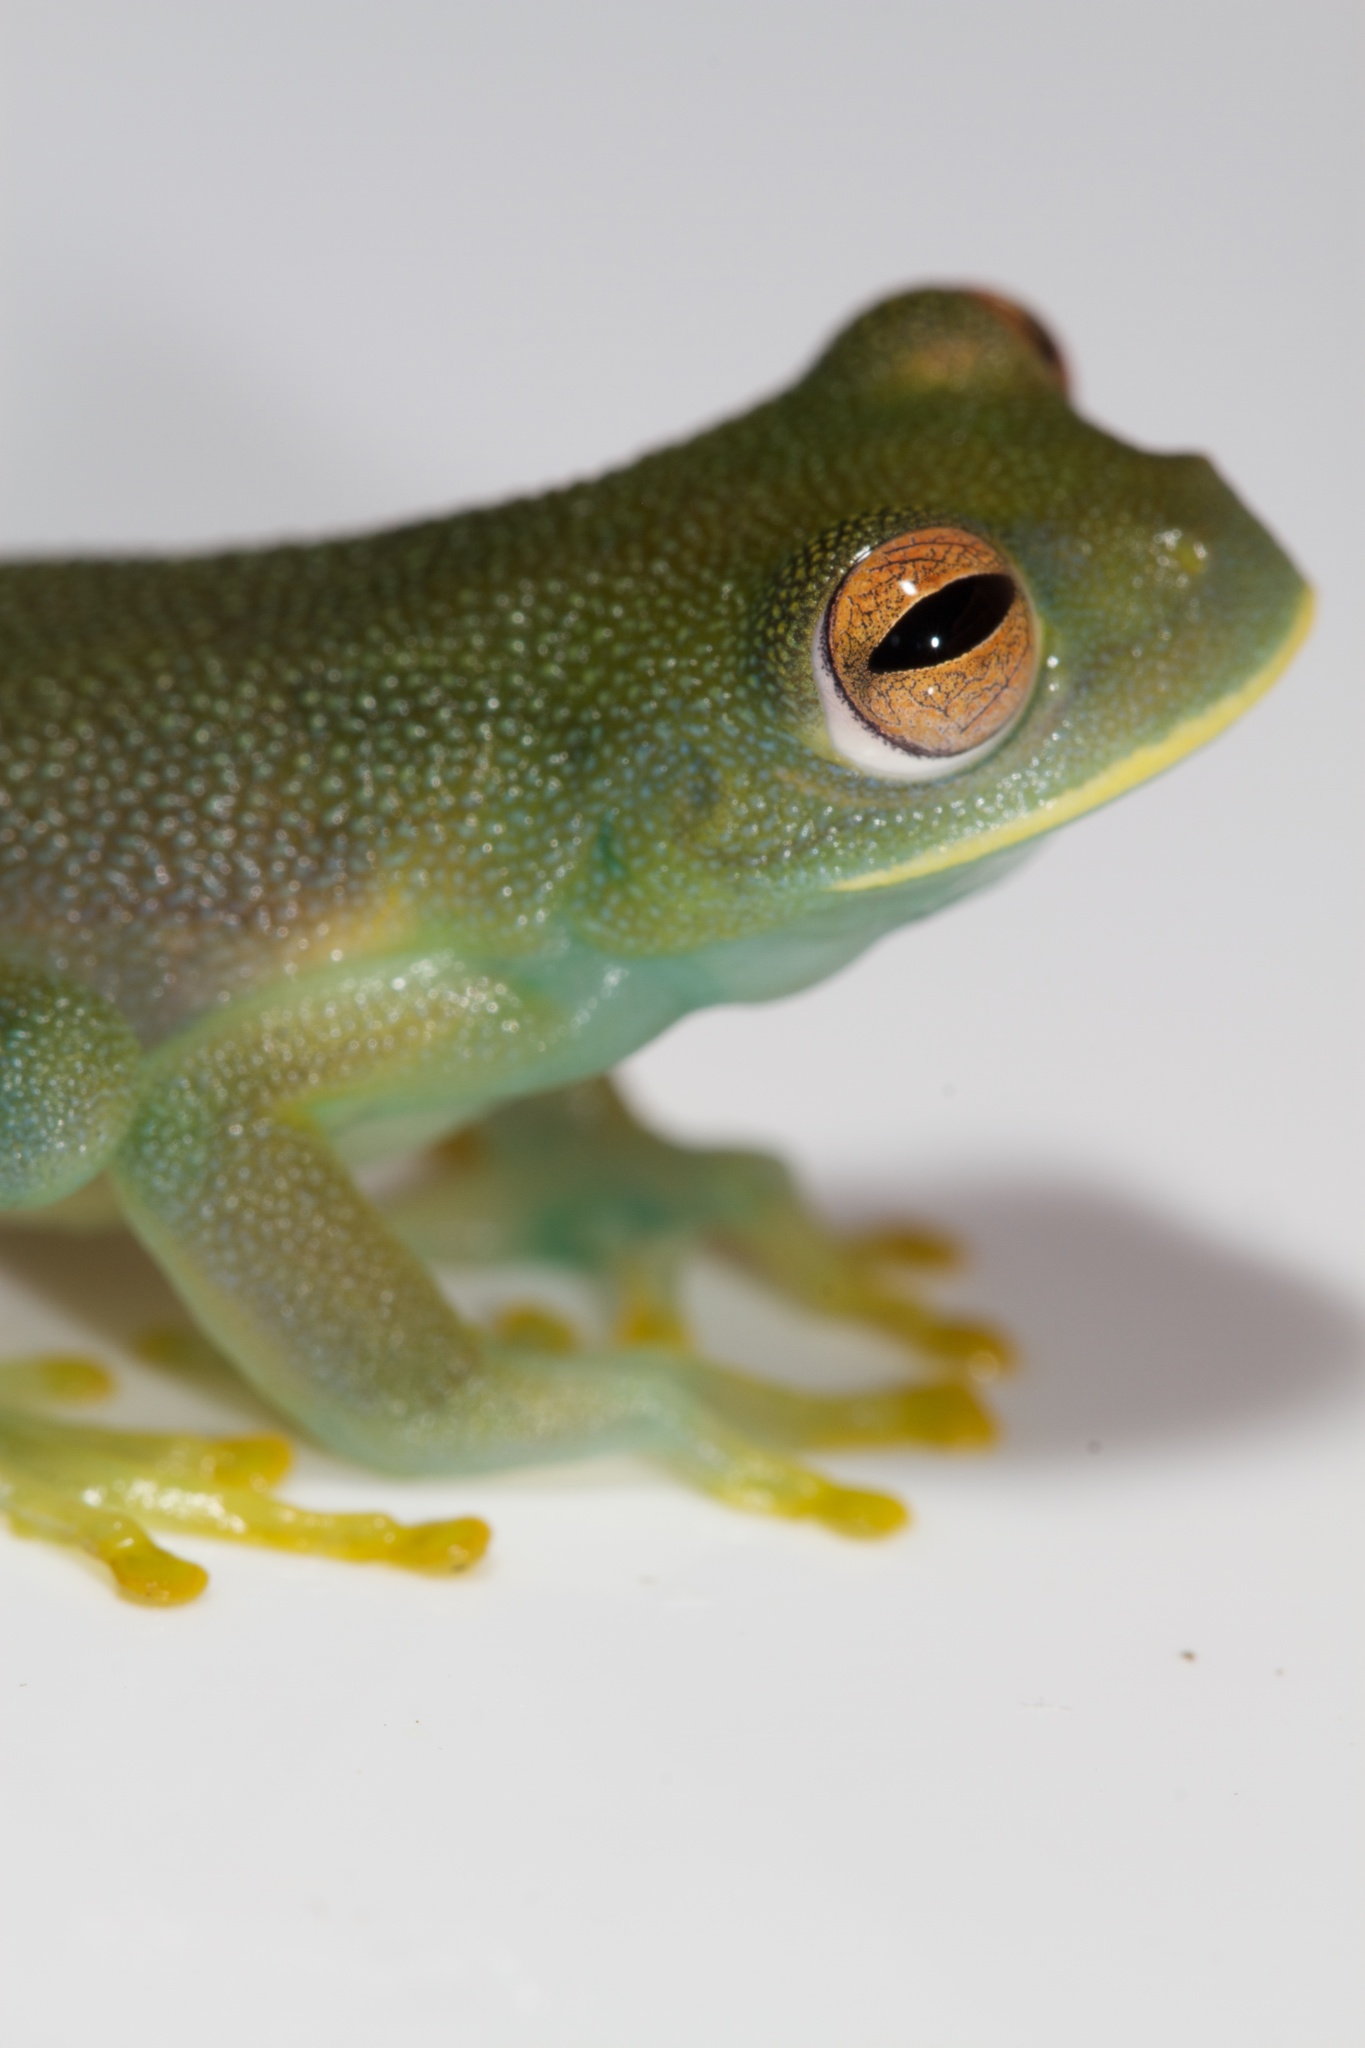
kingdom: Animalia
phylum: Chordata
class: Amphibia
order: Anura
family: Centrolenidae
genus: Cochranella
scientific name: Cochranella granulosa
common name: Grainy cochran frog
